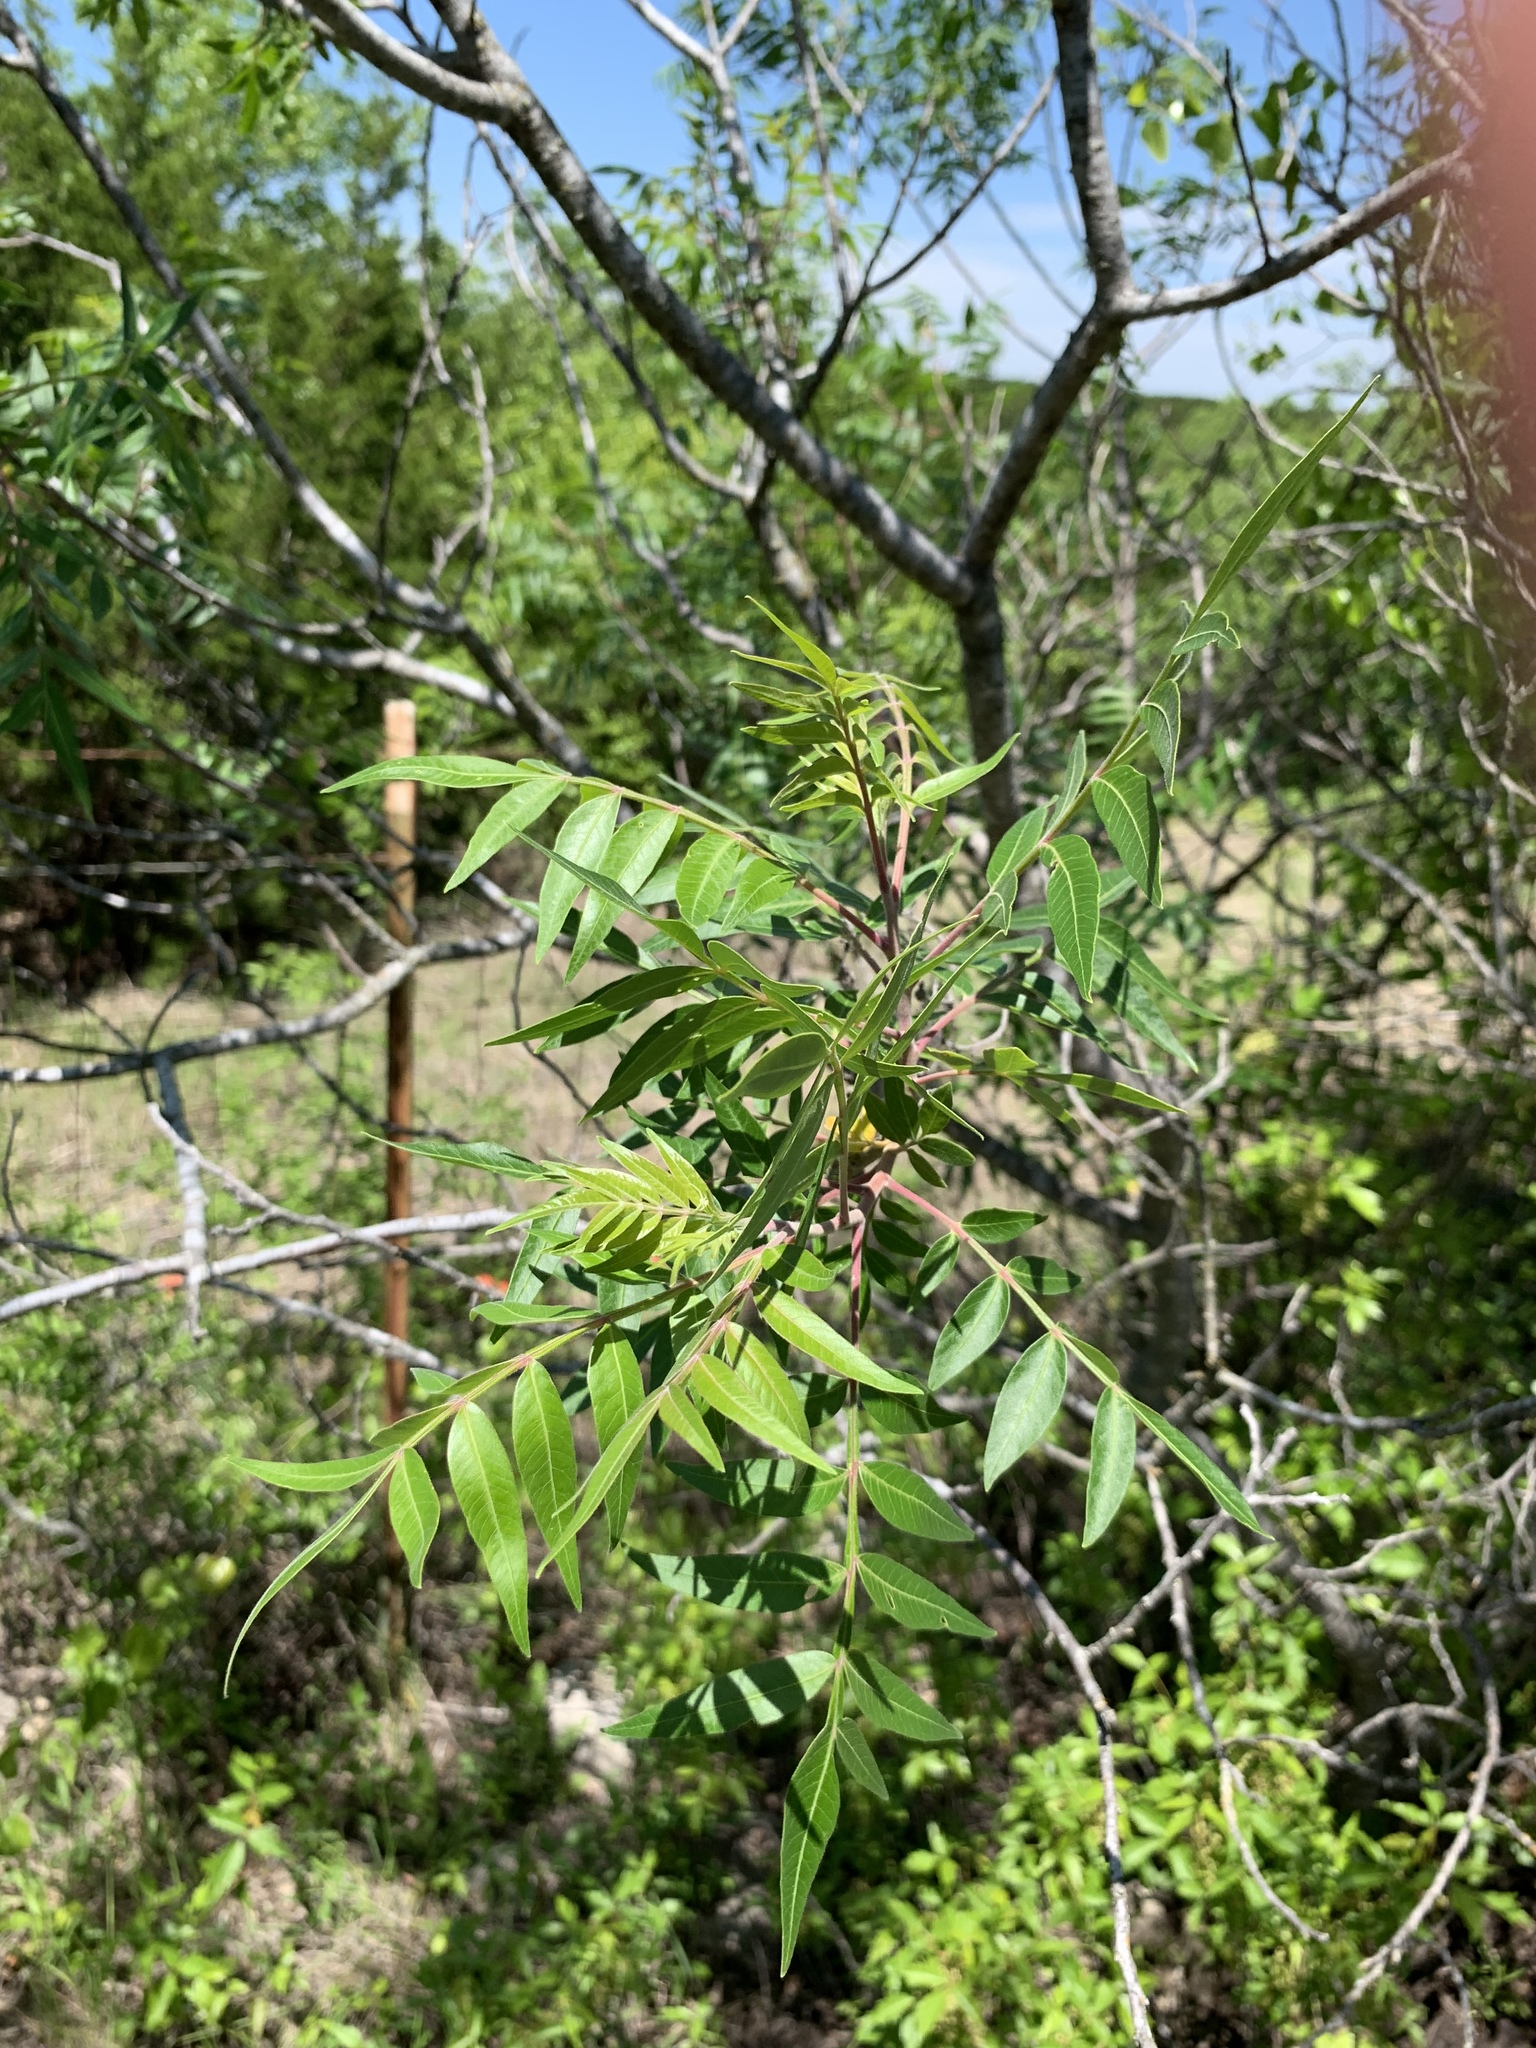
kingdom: Plantae
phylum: Tracheophyta
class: Magnoliopsida
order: Sapindales
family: Anacardiaceae
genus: Rhus
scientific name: Rhus lanceolata
